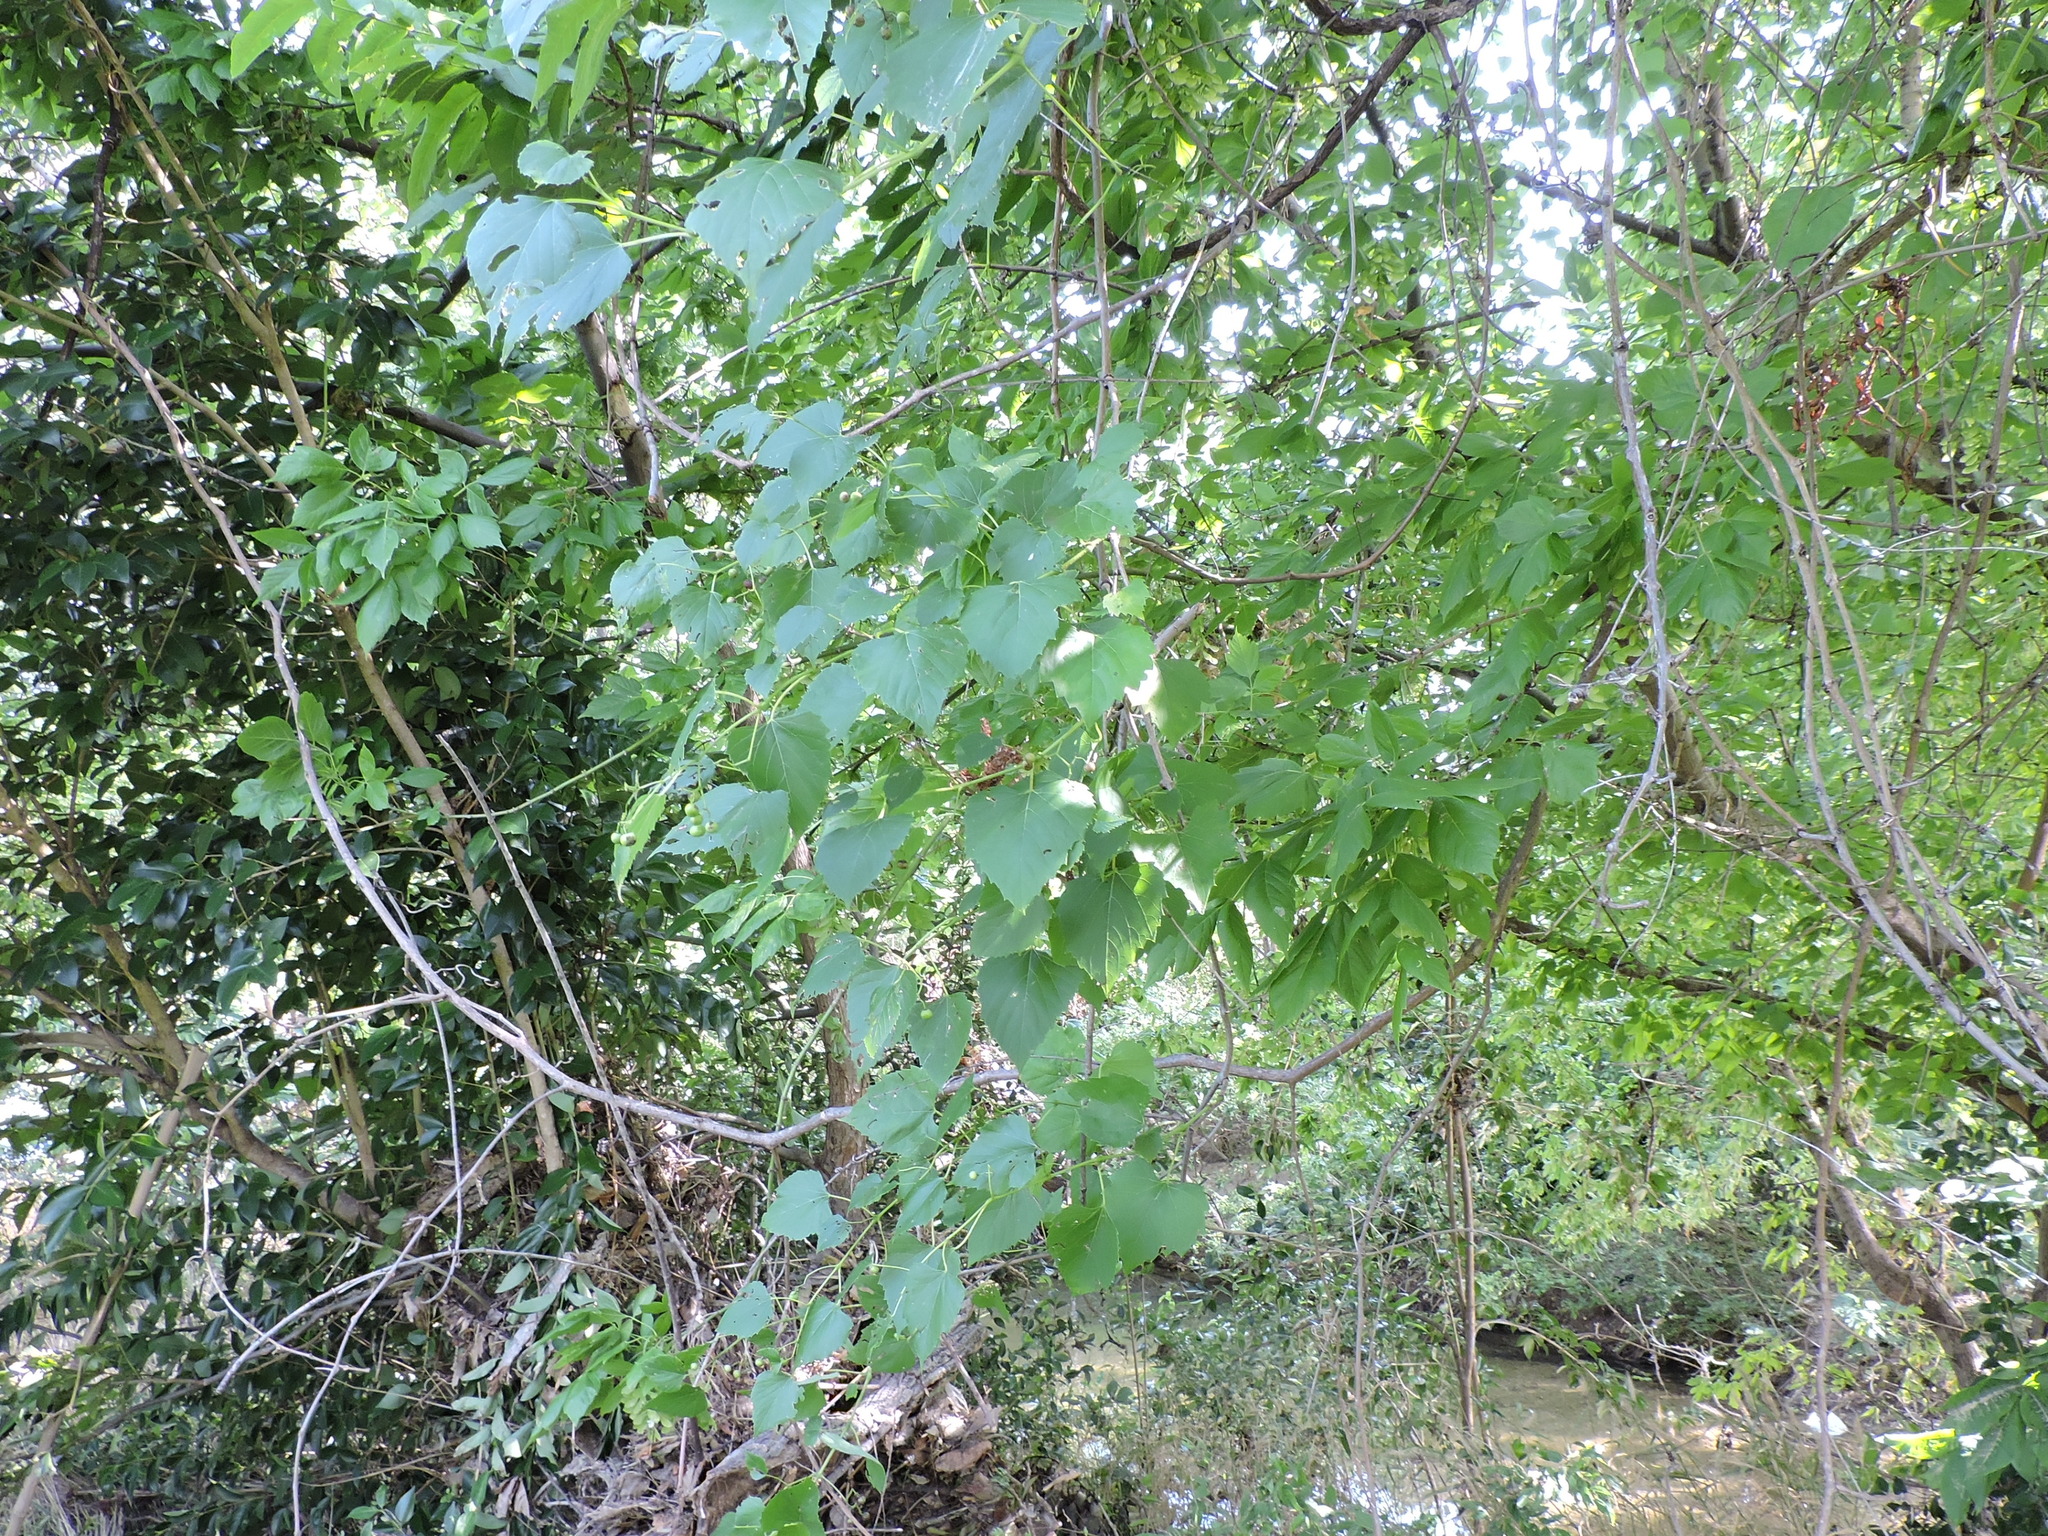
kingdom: Plantae
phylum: Tracheophyta
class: Magnoliopsida
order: Vitales
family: Vitaceae
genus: Ampelopsis
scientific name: Ampelopsis cordata
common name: Heart-leaf ampelopsis
